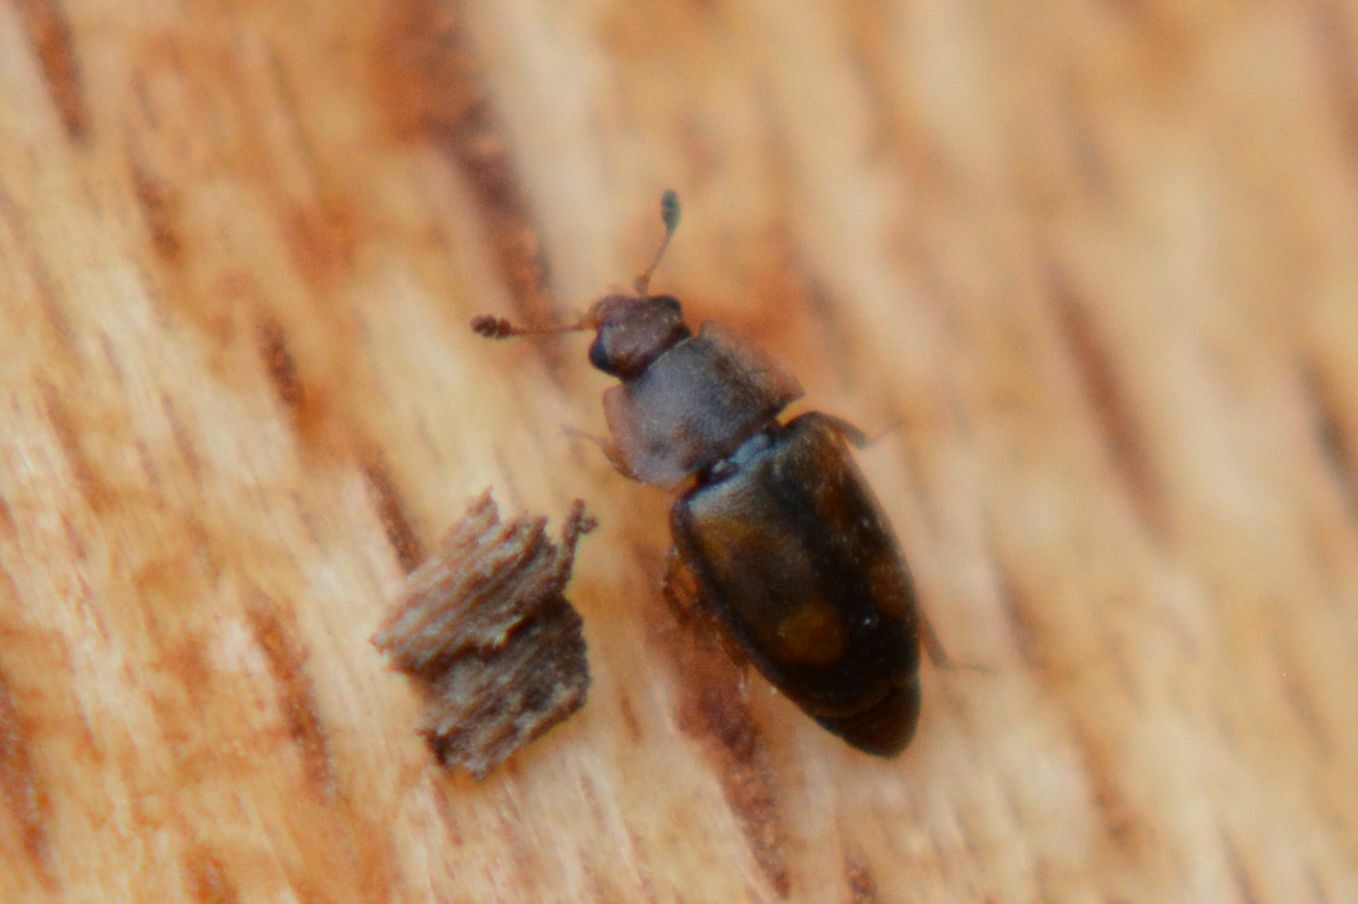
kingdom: Animalia
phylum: Arthropoda
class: Insecta
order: Coleoptera
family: Nitidulidae
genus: Epuraea
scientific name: Epuraea unicolor
